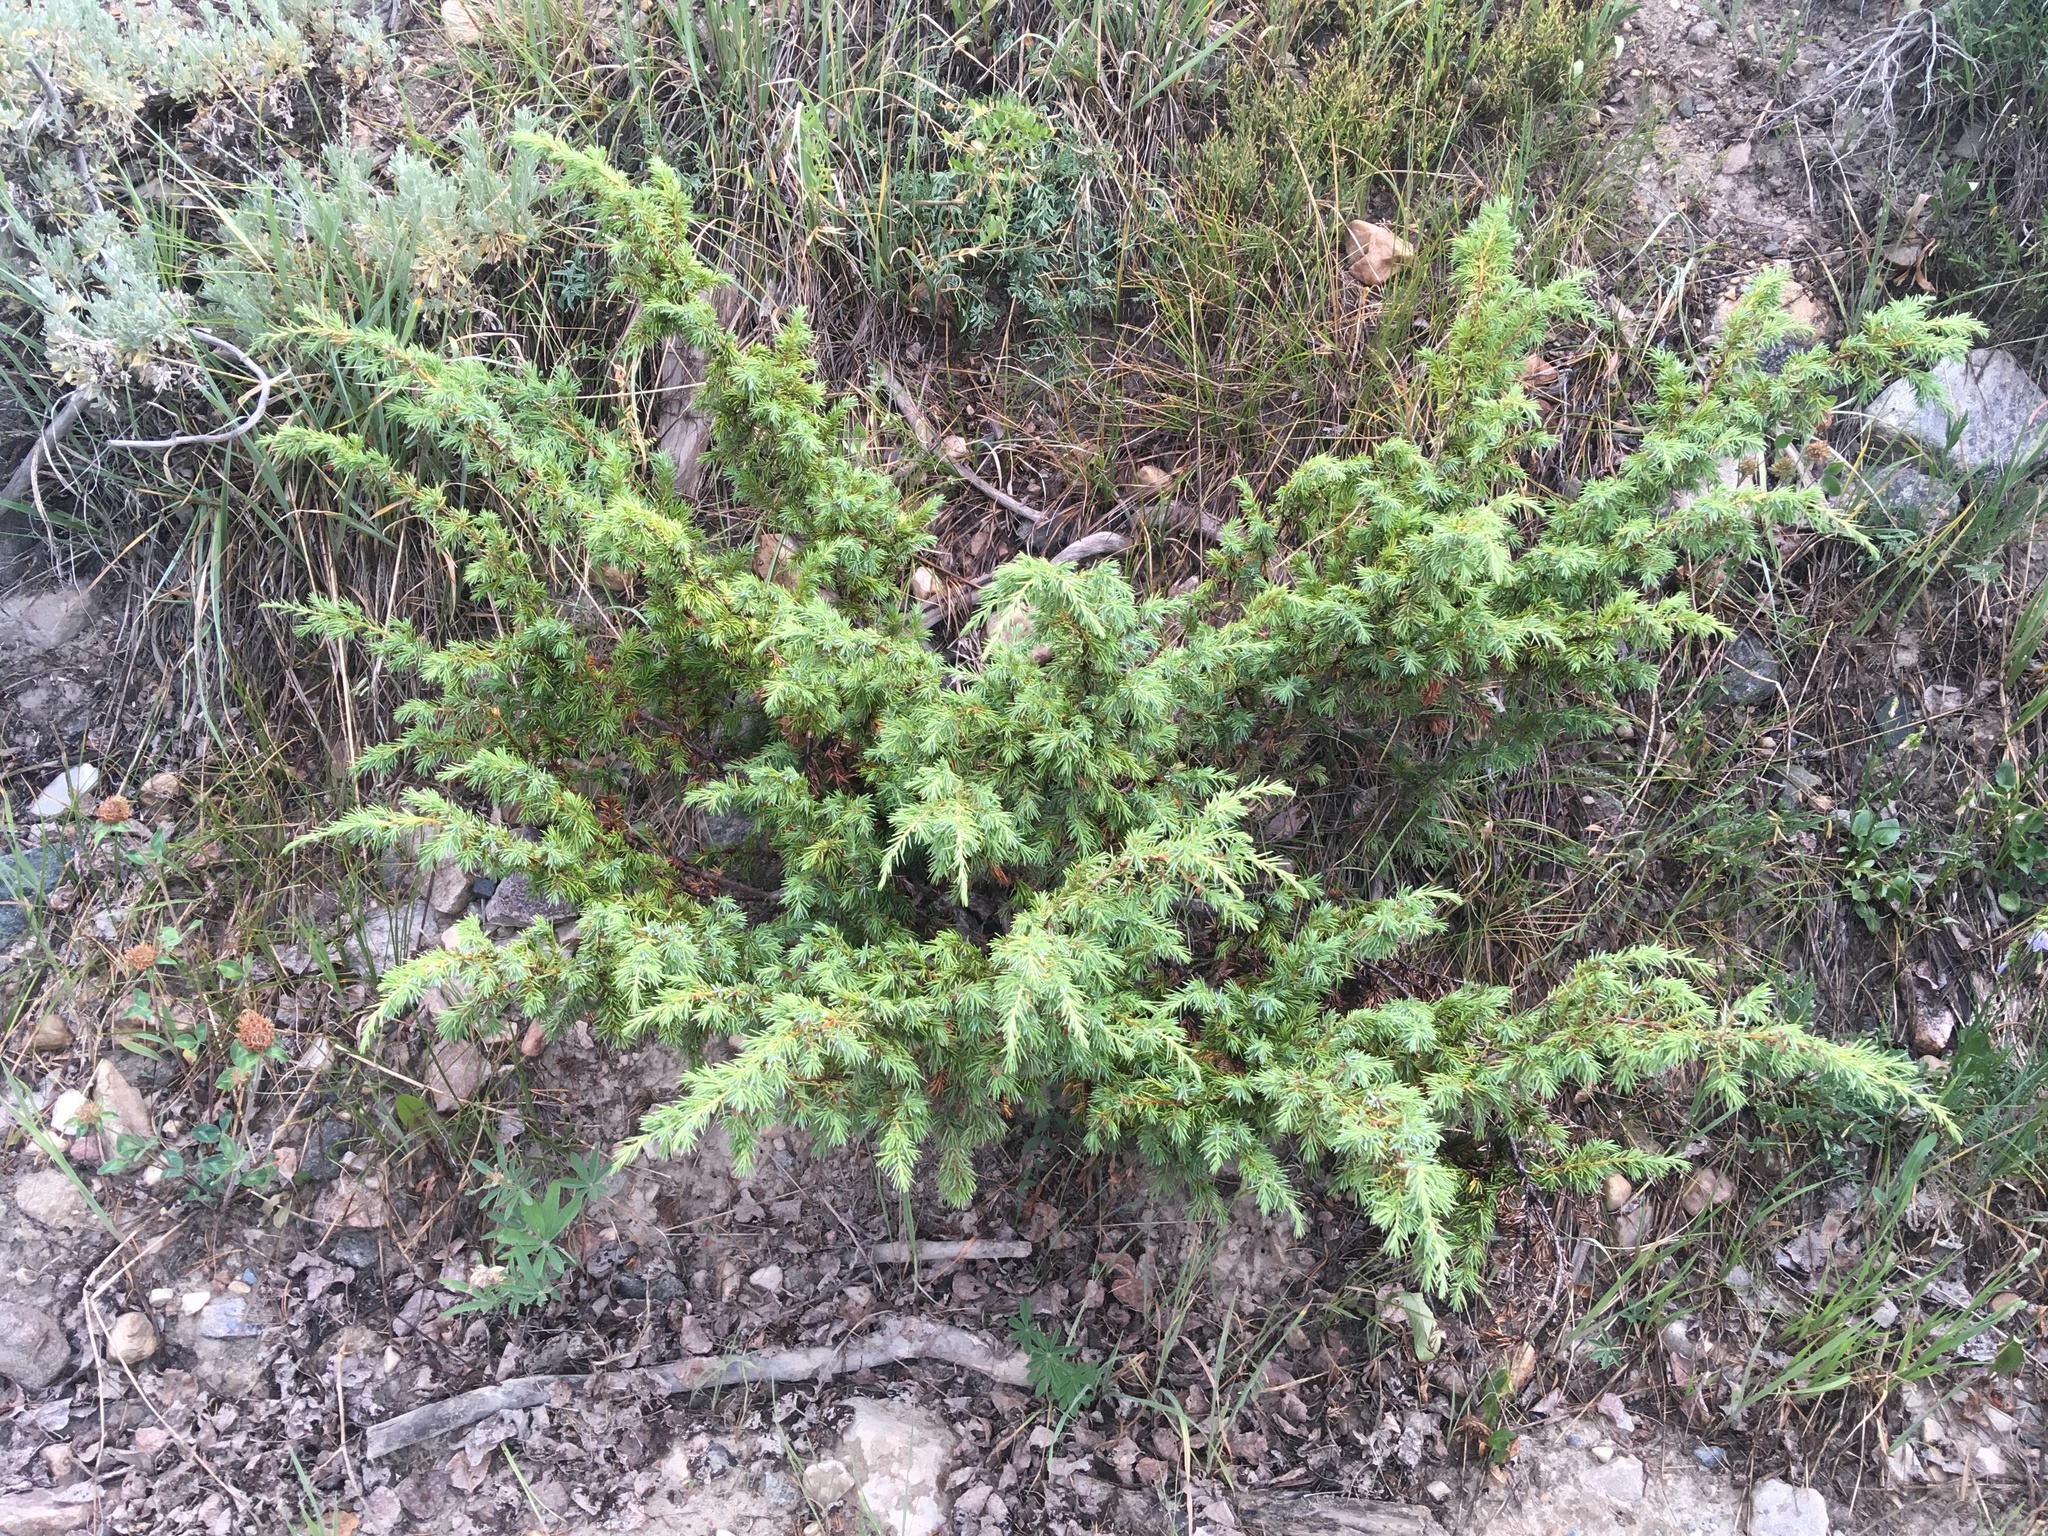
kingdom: Plantae
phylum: Tracheophyta
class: Pinopsida
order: Pinales
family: Cupressaceae
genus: Juniperus
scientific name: Juniperus communis
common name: Common juniper
